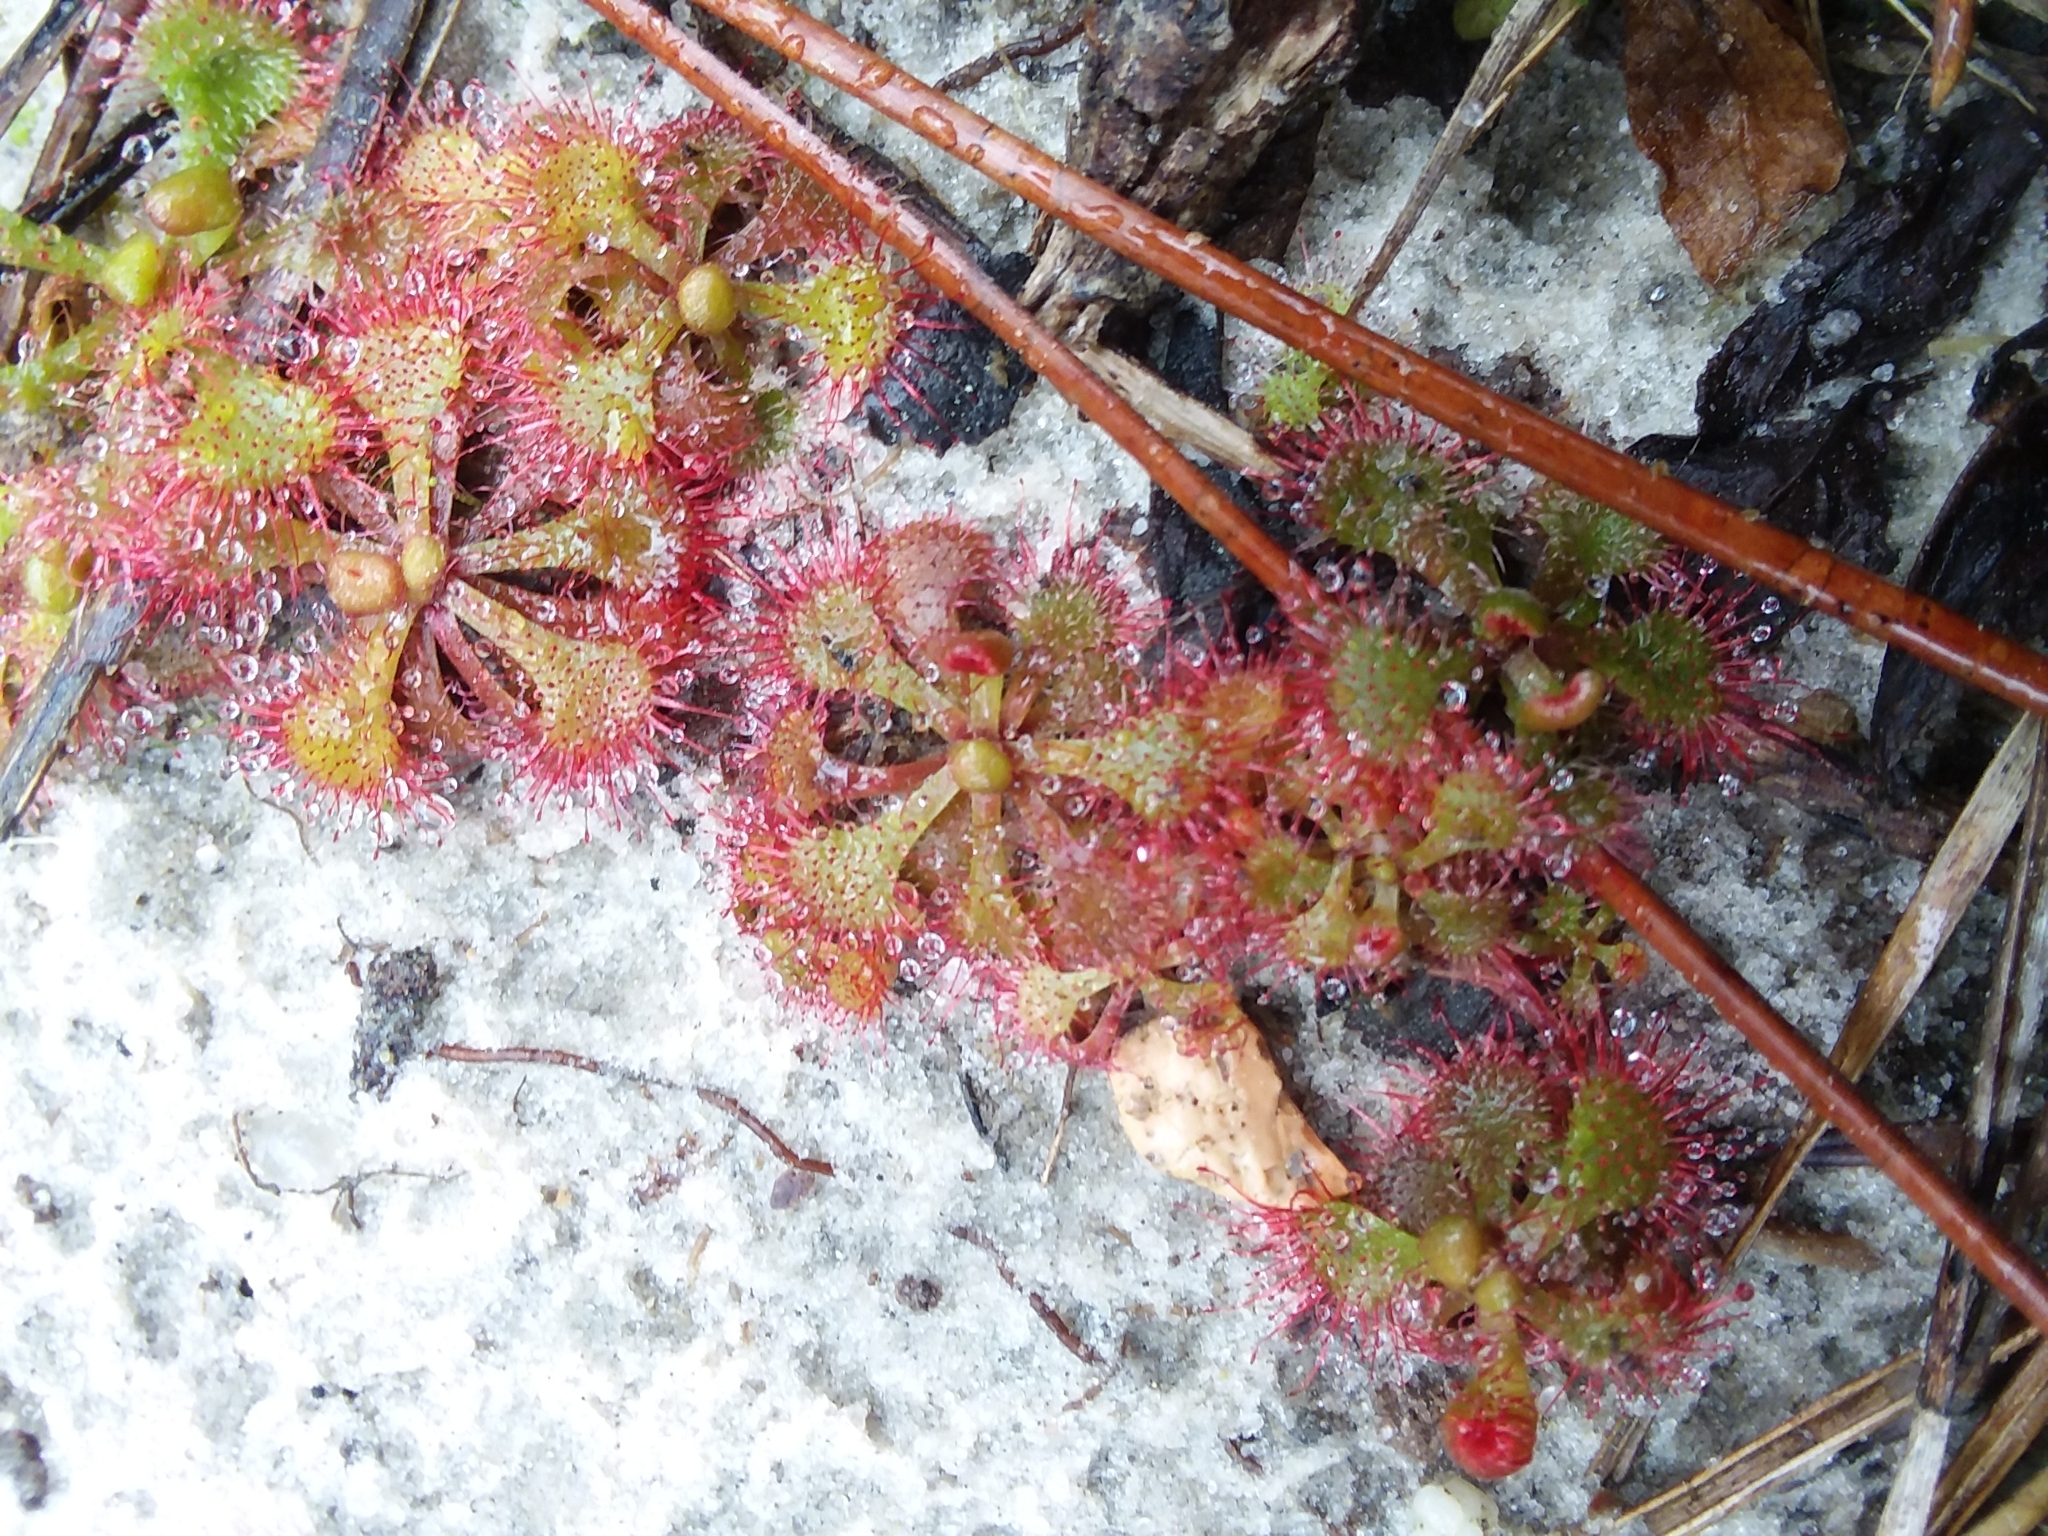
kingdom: Plantae
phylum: Tracheophyta
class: Magnoliopsida
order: Caryophyllales
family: Droseraceae
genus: Drosera
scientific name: Drosera brevifolia
